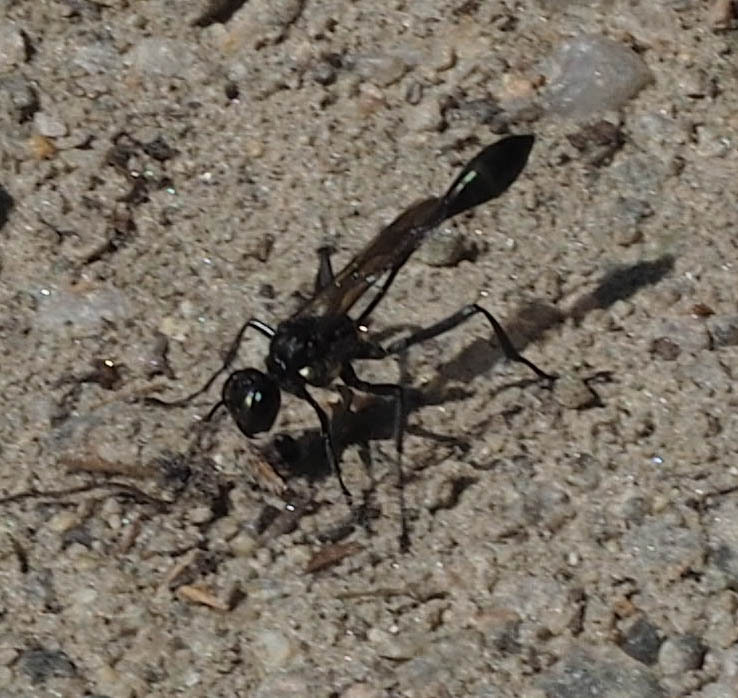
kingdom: Animalia
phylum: Arthropoda
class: Insecta
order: Hymenoptera
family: Sphecidae
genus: Eremnophila
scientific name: Eremnophila aureonotata
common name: Gold-marked thread-waisted wasp
